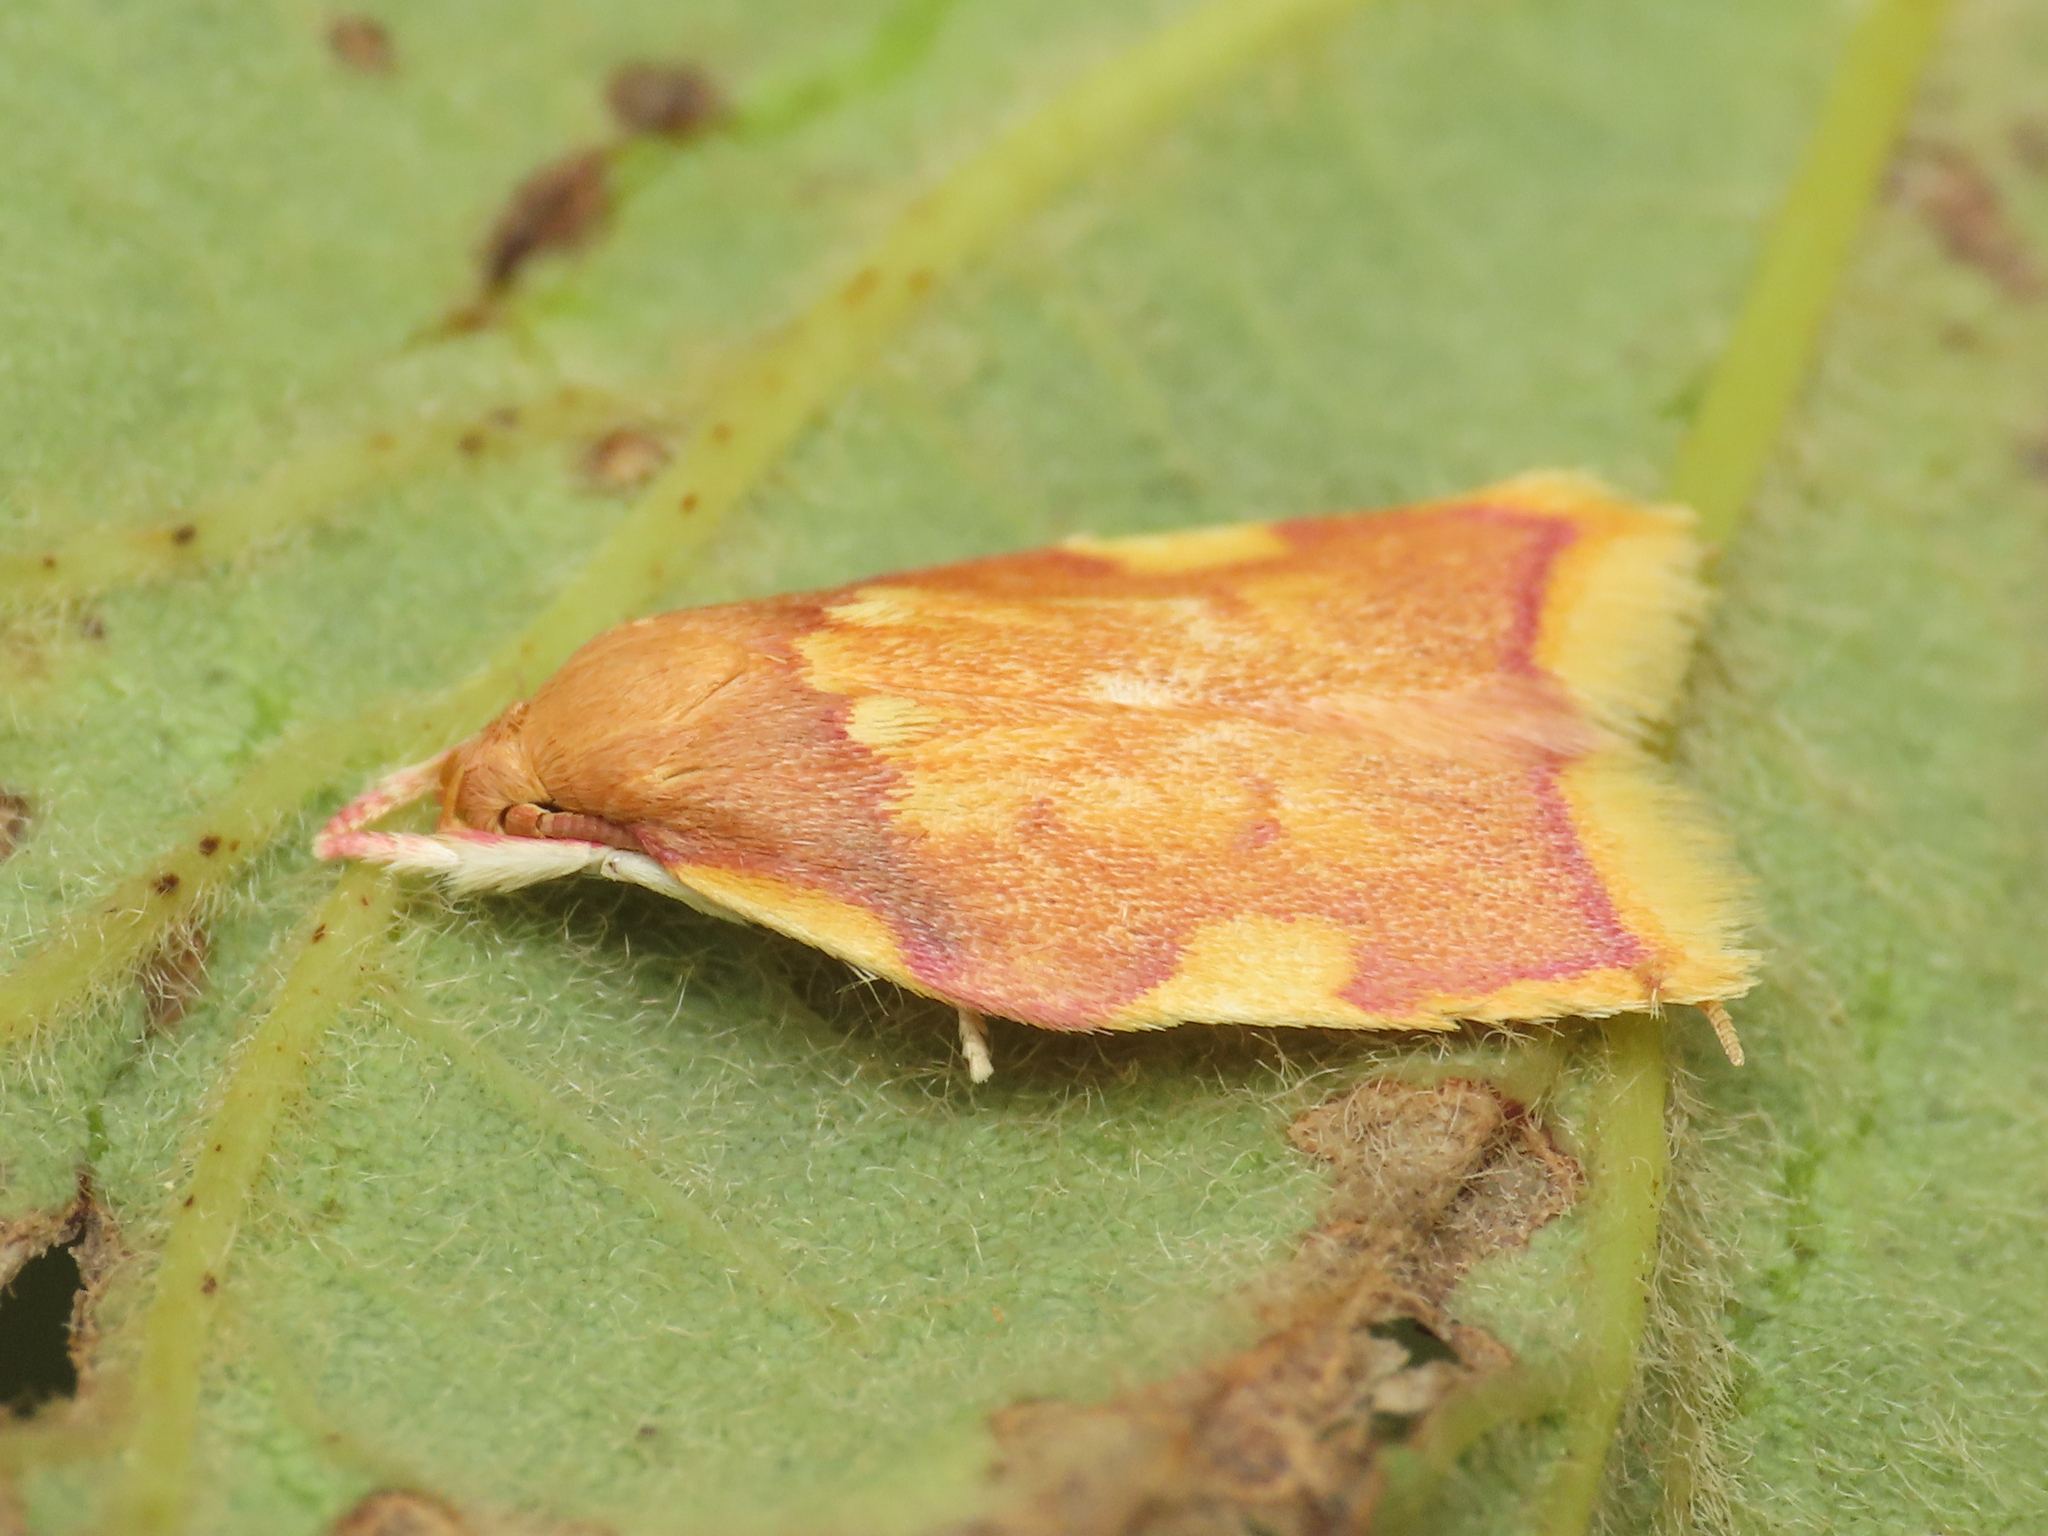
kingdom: Animalia
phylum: Arthropoda
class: Insecta
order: Lepidoptera
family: Peleopodidae
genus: Carcina
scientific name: Carcina quercana
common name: Moth
